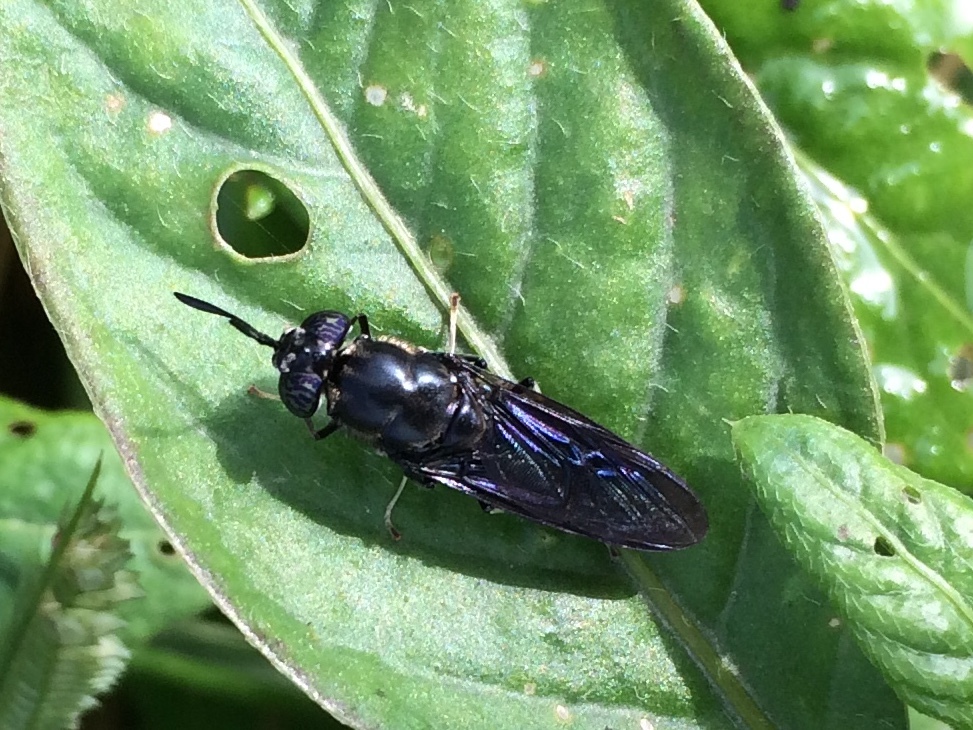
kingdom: Animalia
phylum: Arthropoda
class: Insecta
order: Diptera
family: Stratiomyidae
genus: Hermetia
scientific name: Hermetia illucens
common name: Black soldier fly
